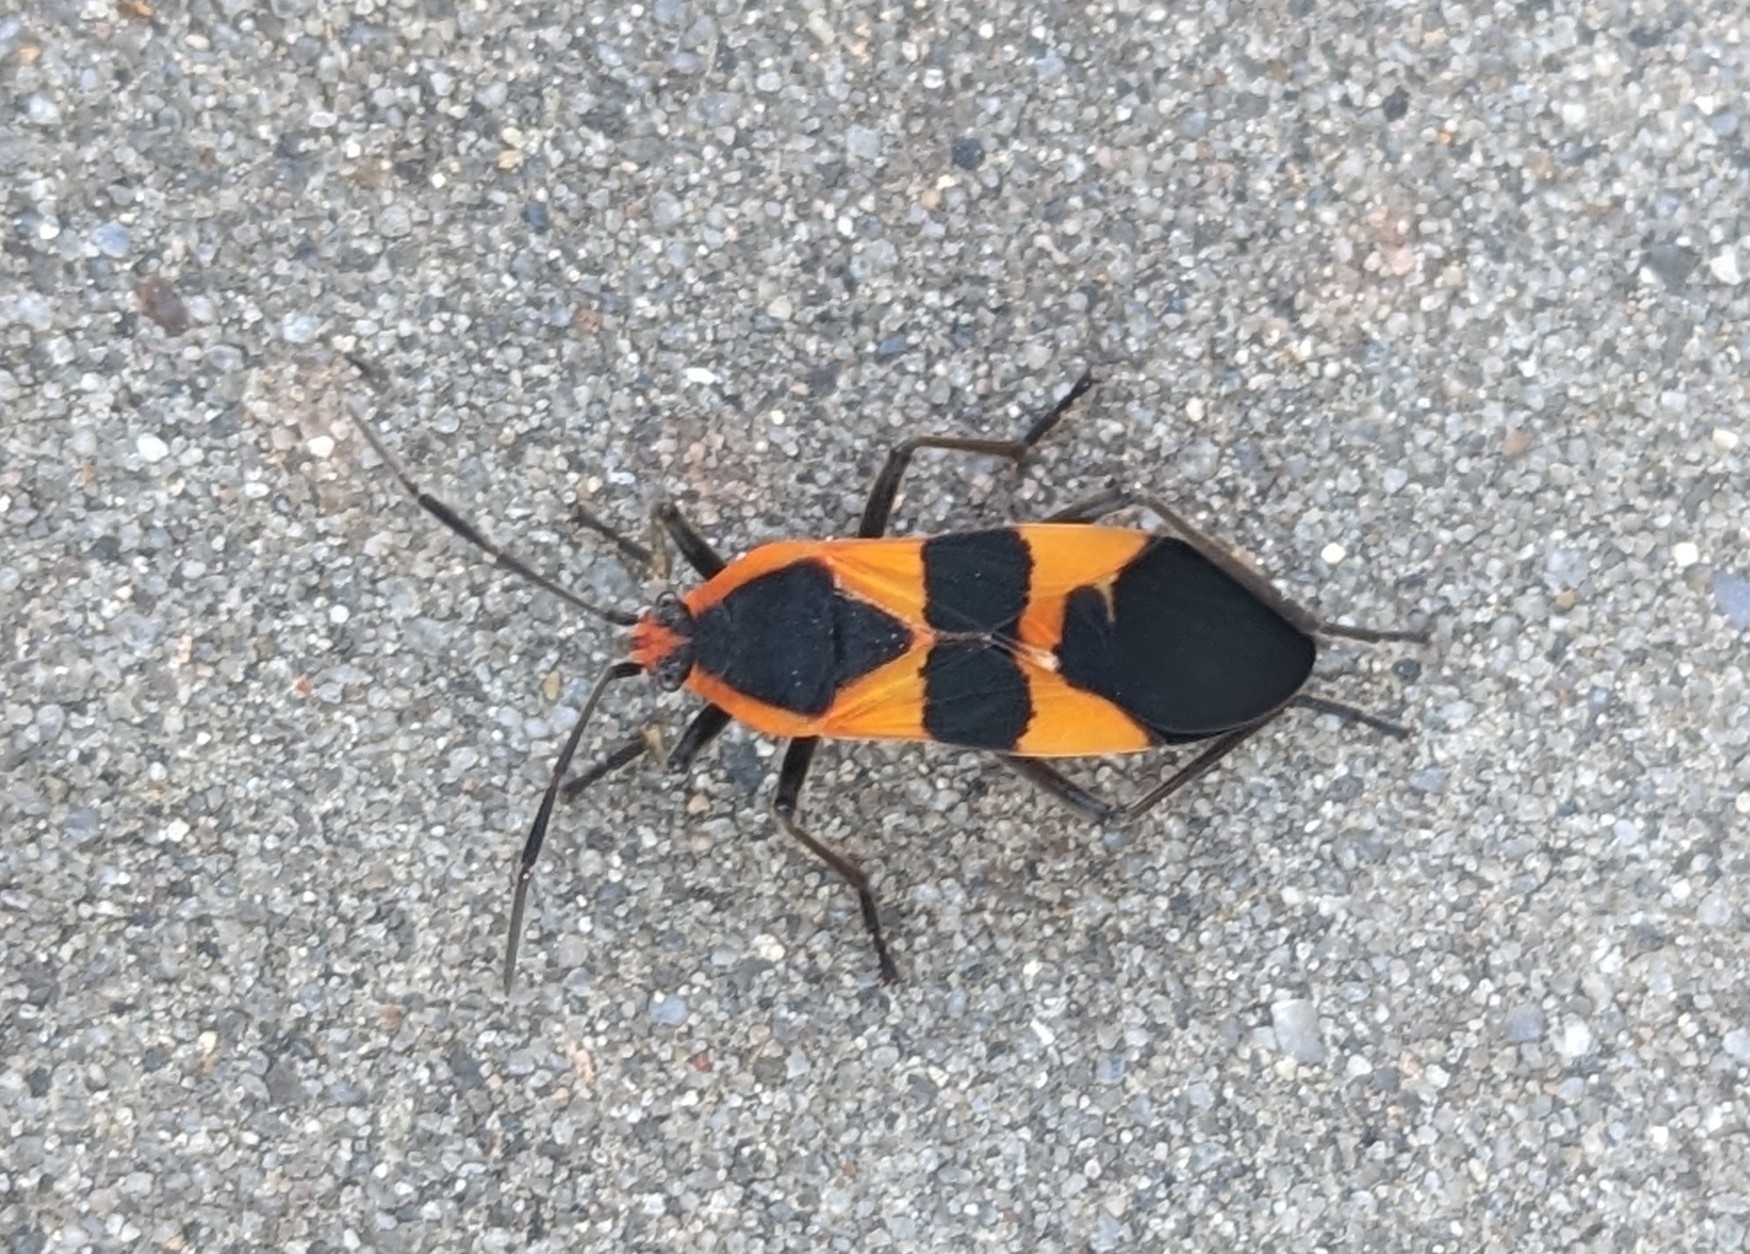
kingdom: Animalia
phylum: Arthropoda
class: Insecta
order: Hemiptera
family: Lygaeidae
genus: Oncopeltus
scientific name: Oncopeltus fasciatus
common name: Large milkweed bug
